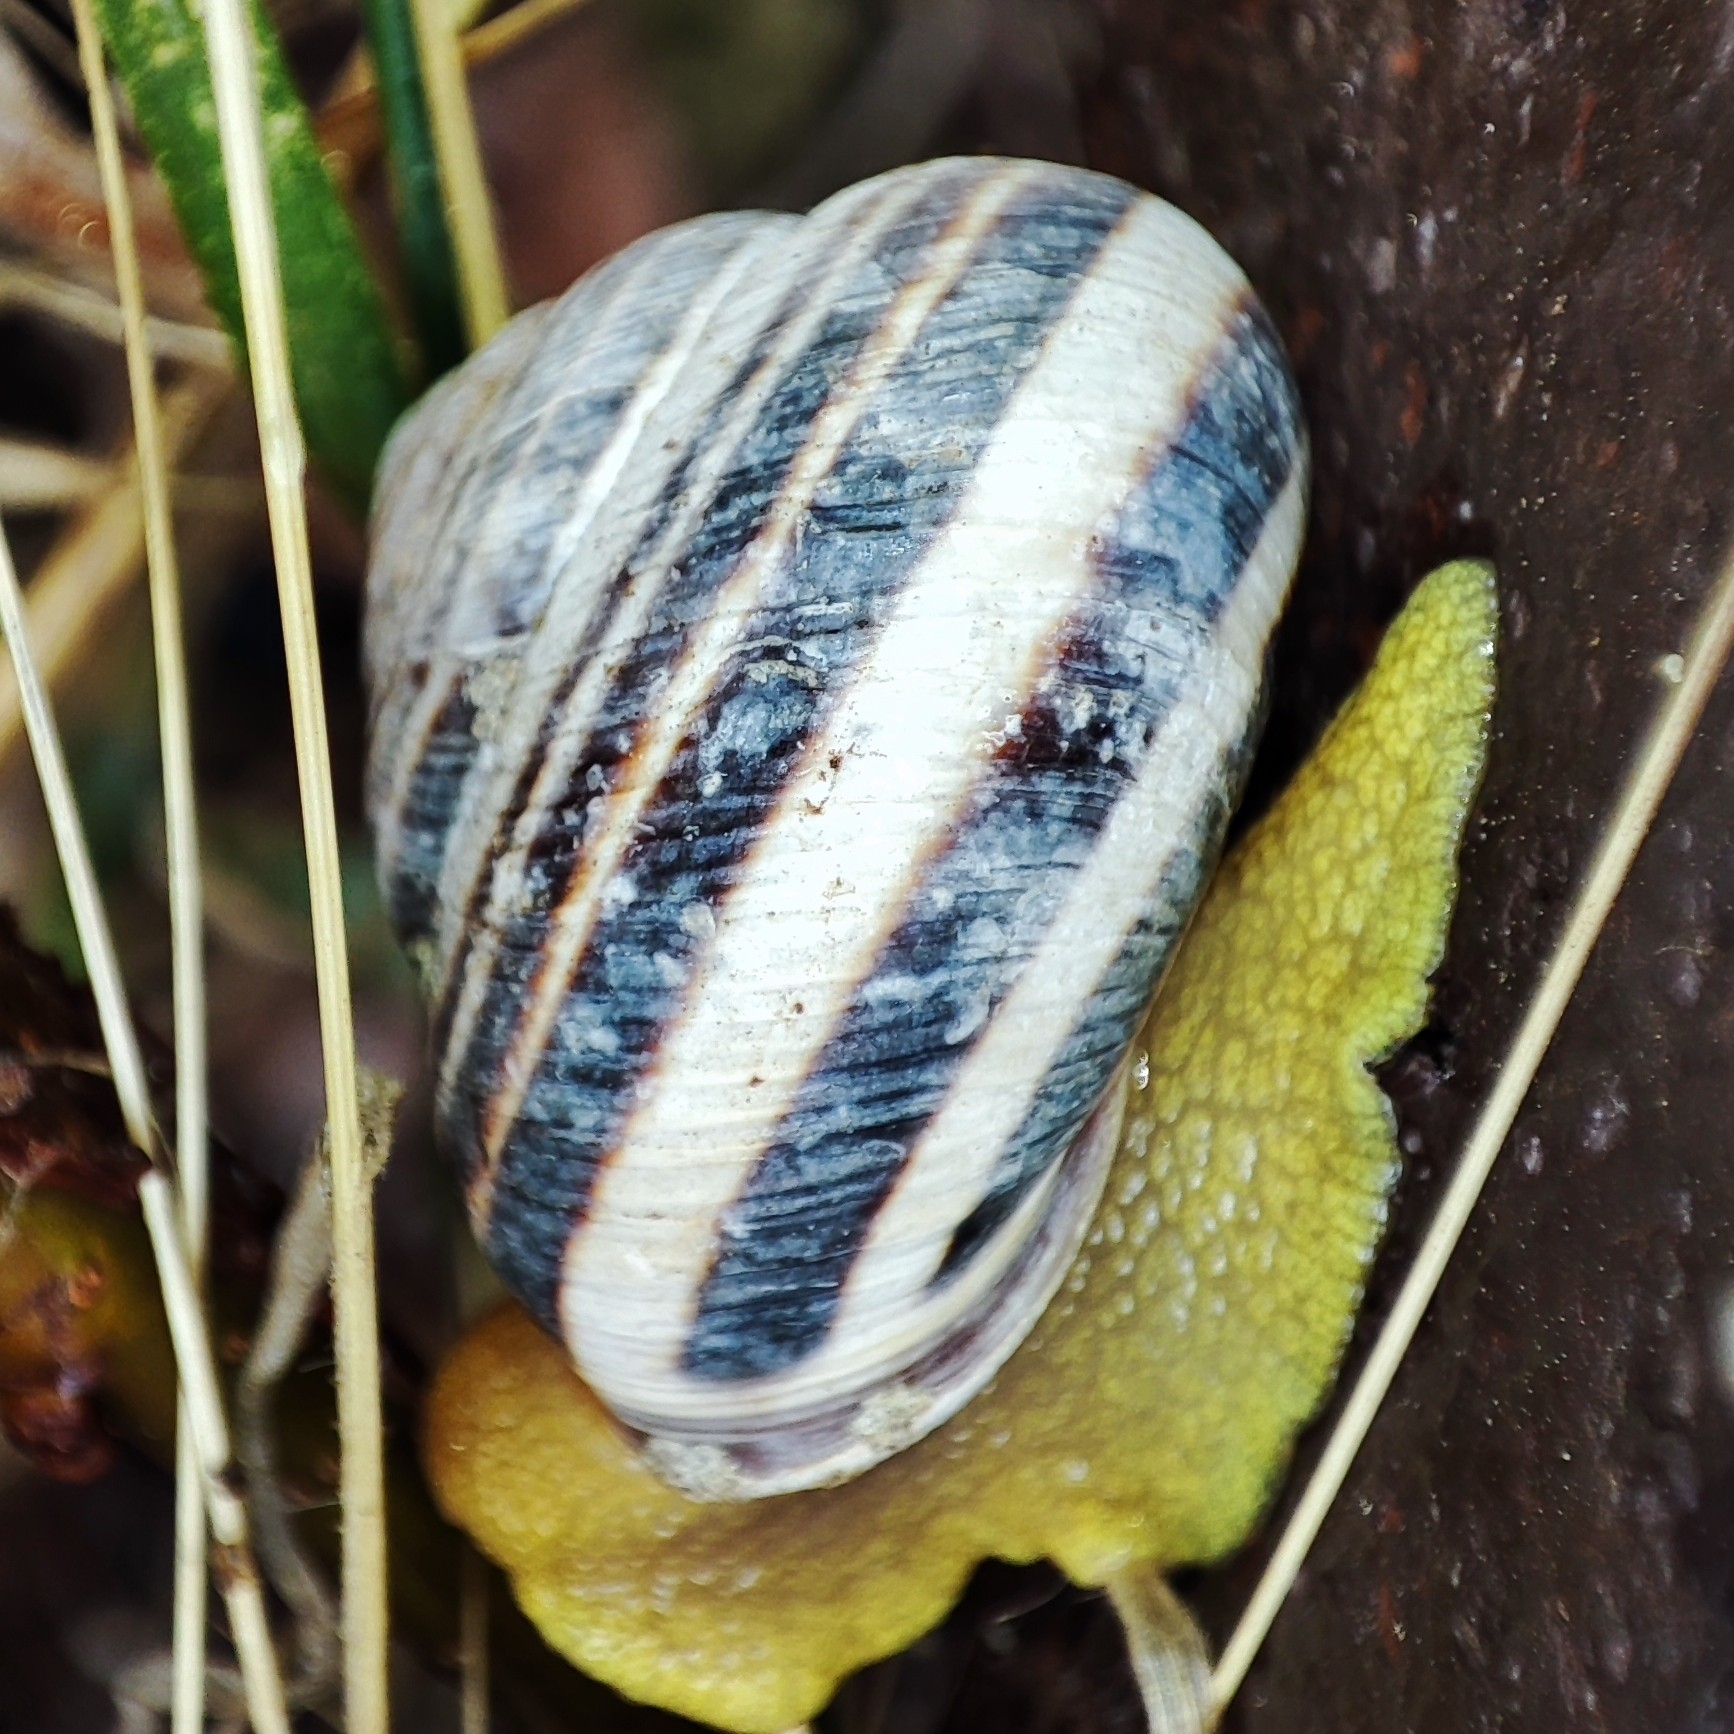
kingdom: Animalia
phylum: Mollusca
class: Gastropoda
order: Stylommatophora
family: Helicidae
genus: Caucasotachea
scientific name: Caucasotachea vindobonensis
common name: European helicid land snail
